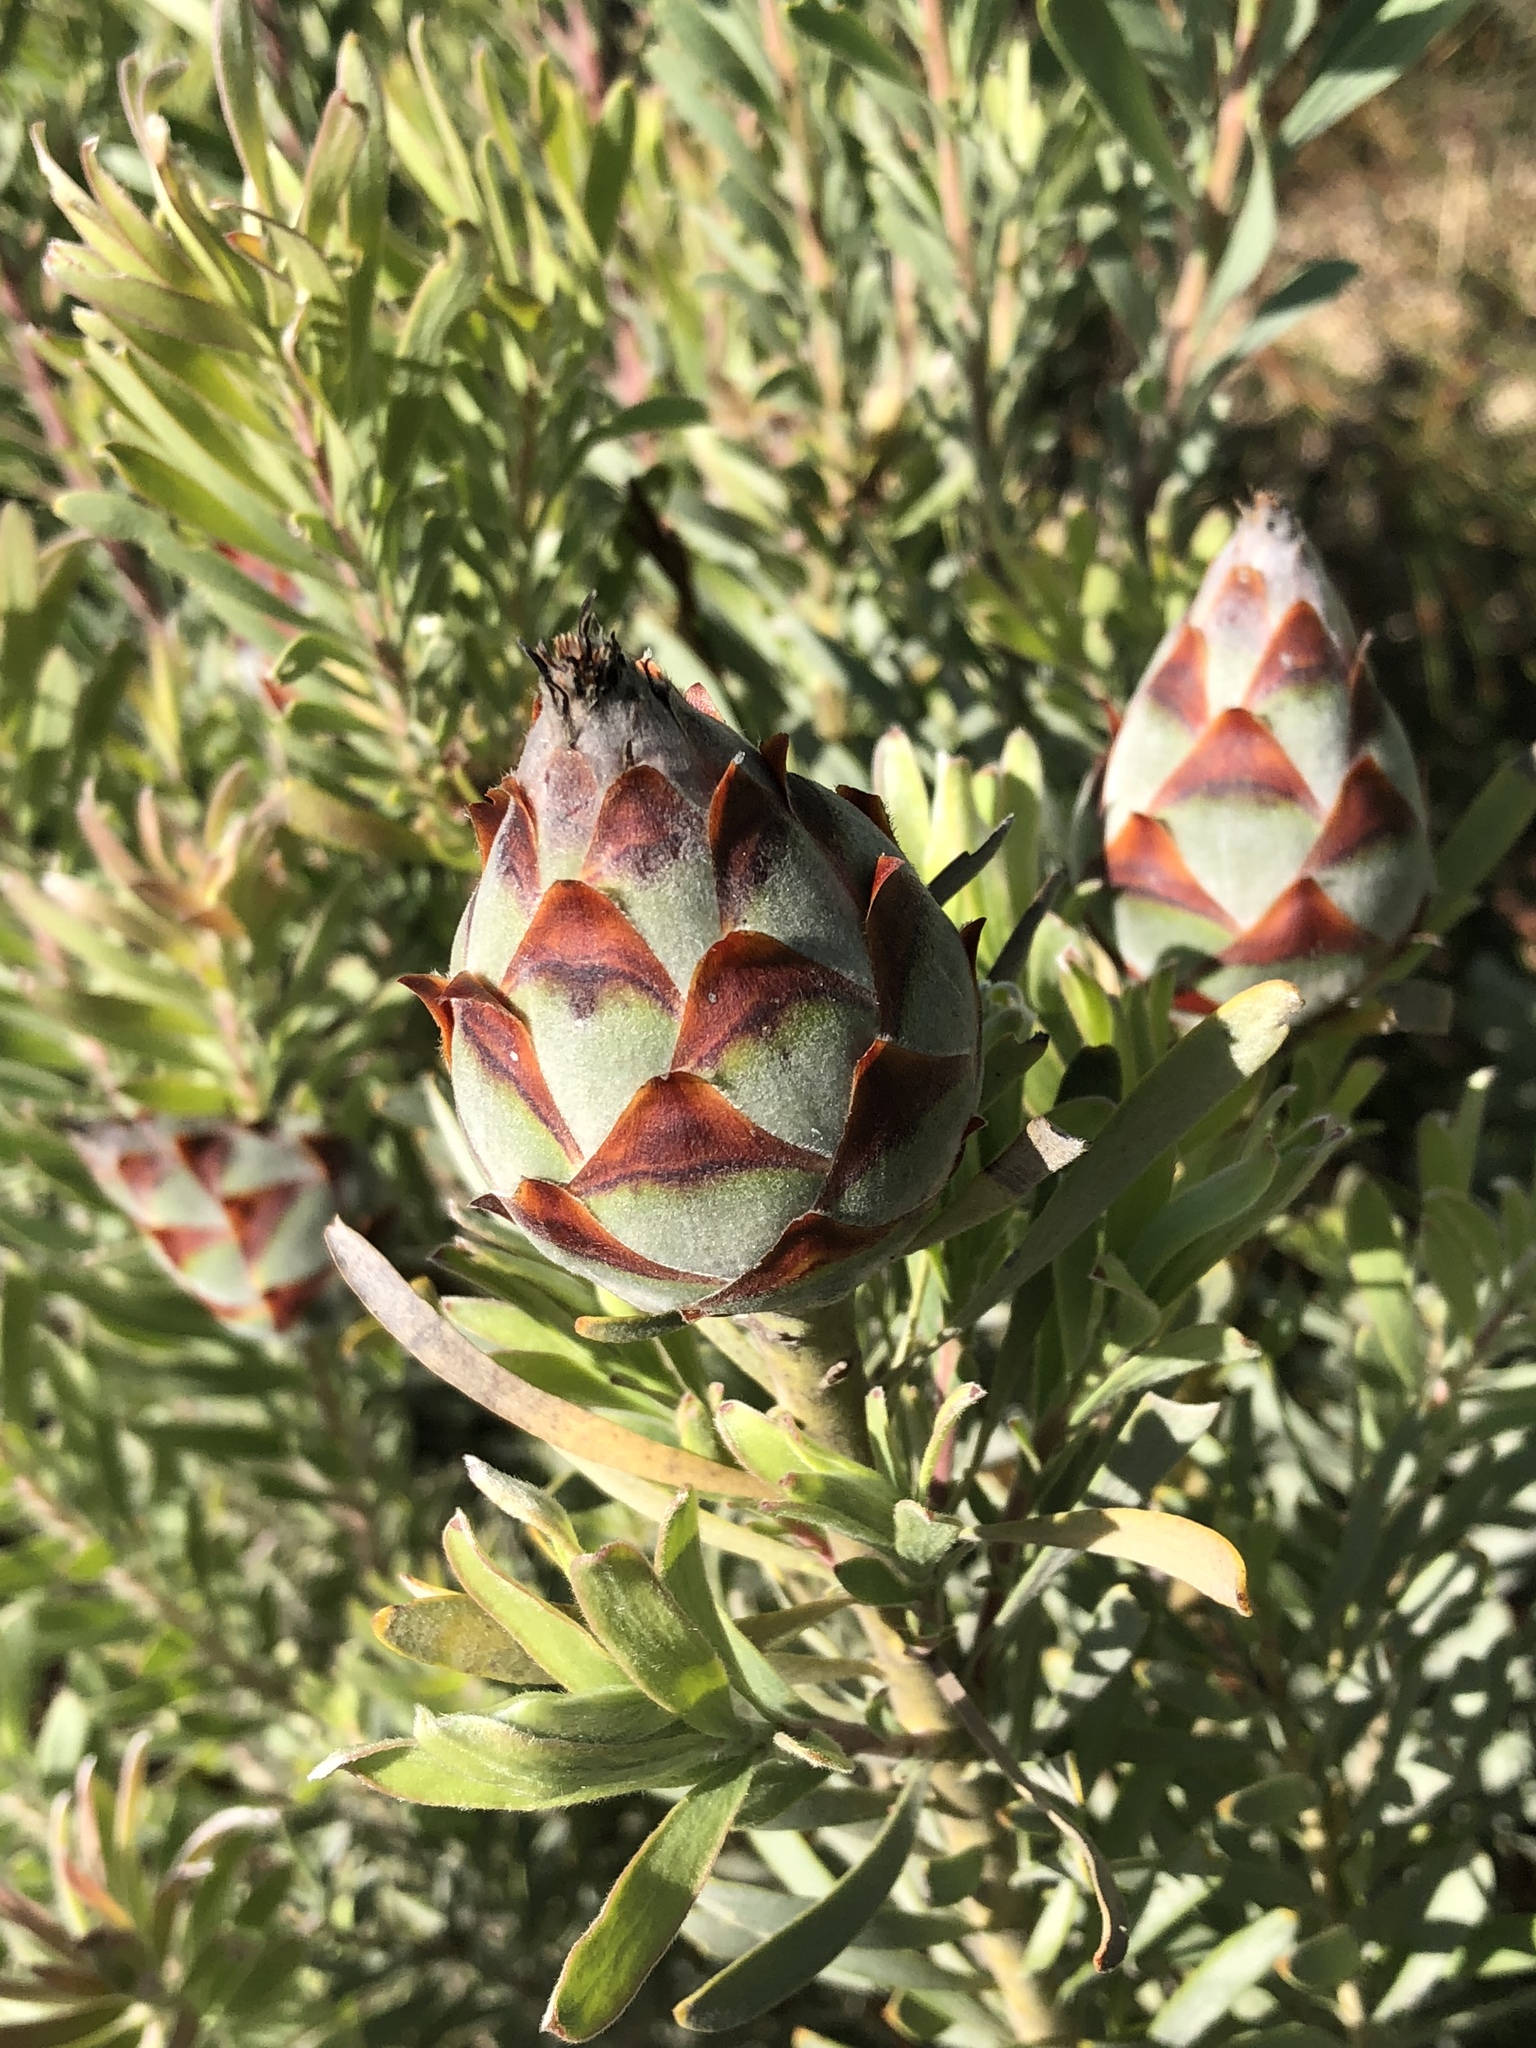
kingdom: Plantae
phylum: Tracheophyta
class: Magnoliopsida
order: Proteales
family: Proteaceae
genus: Leucadendron
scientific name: Leucadendron rubrum
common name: Spinning top
